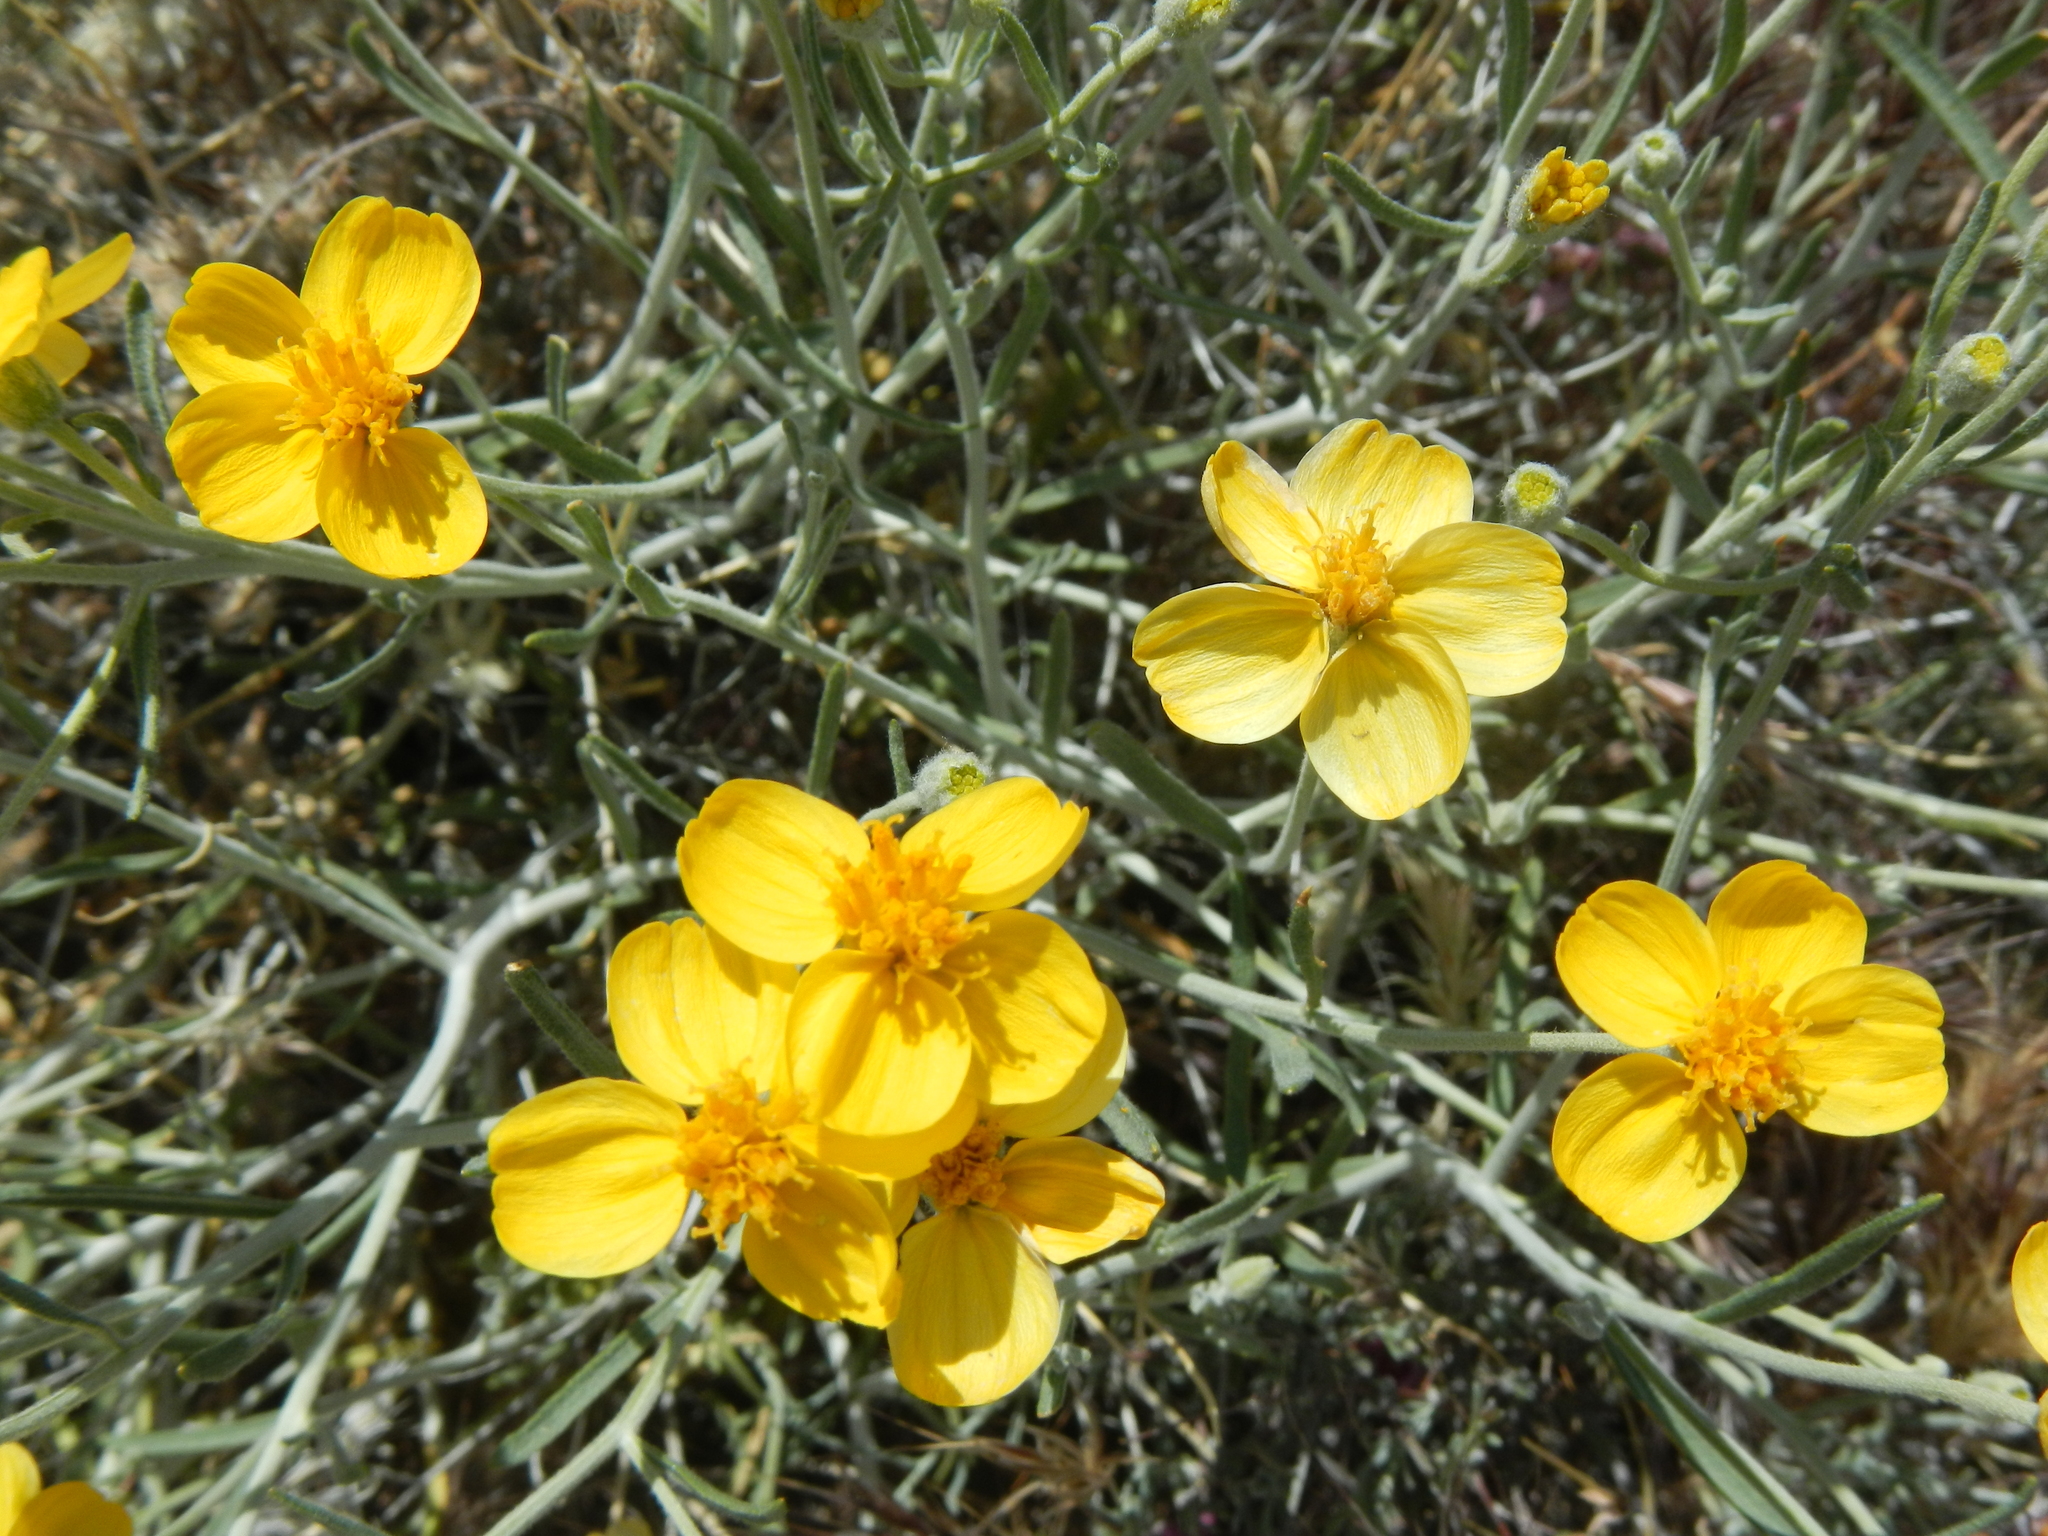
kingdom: Plantae
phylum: Tracheophyta
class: Magnoliopsida
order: Asterales
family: Asteraceae
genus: Psilostrophe
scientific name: Psilostrophe cooperi
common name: White-stem paper-flower
